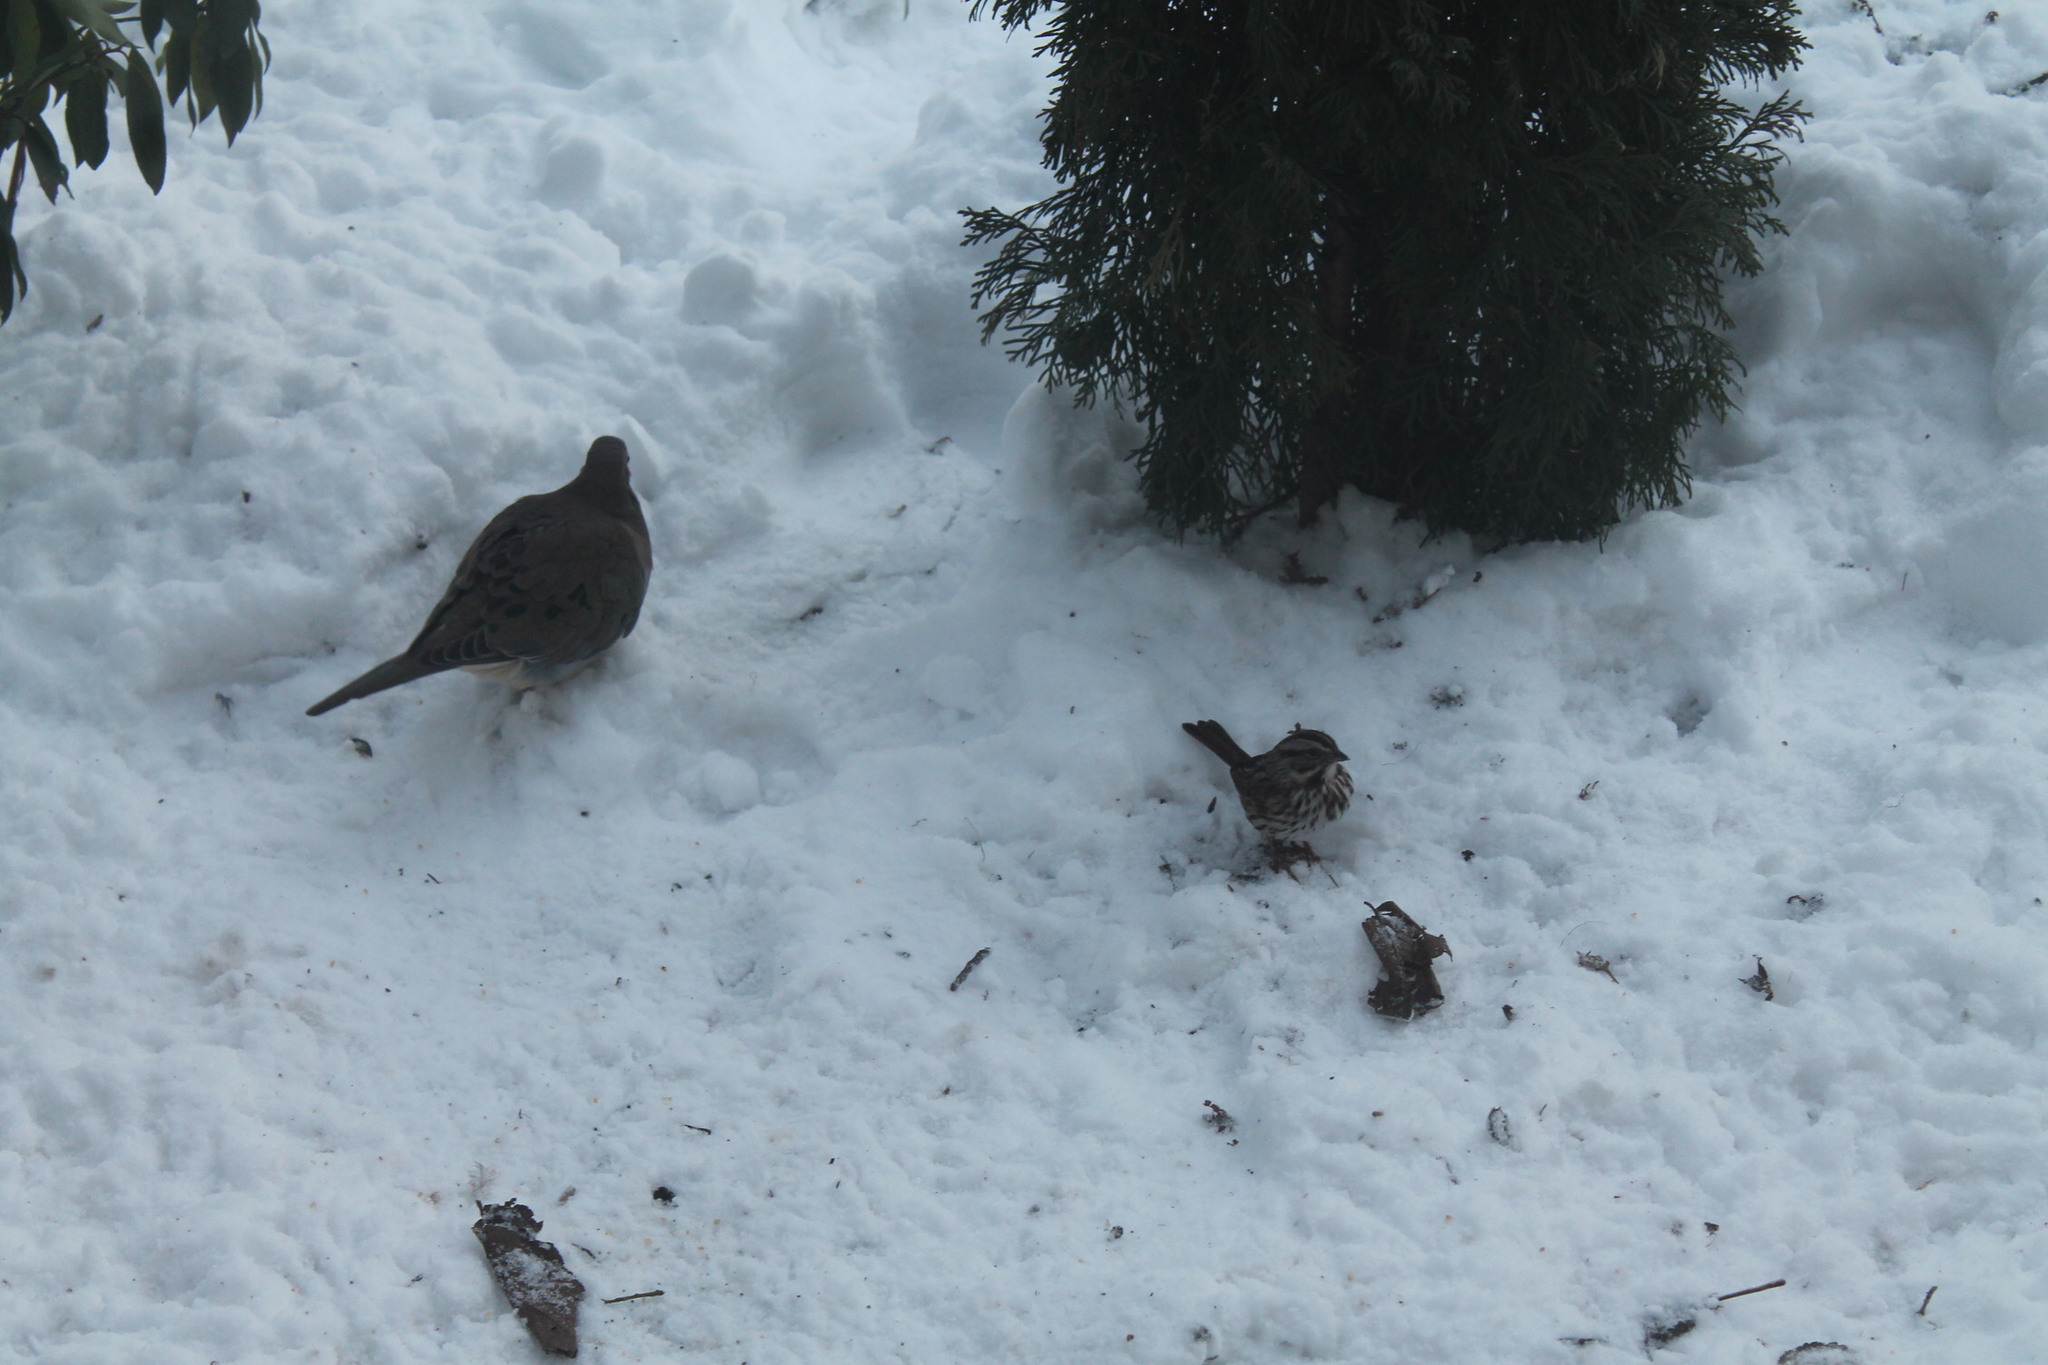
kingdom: Animalia
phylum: Chordata
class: Aves
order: Passeriformes
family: Passerellidae
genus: Melospiza
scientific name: Melospiza melodia
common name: Song sparrow
